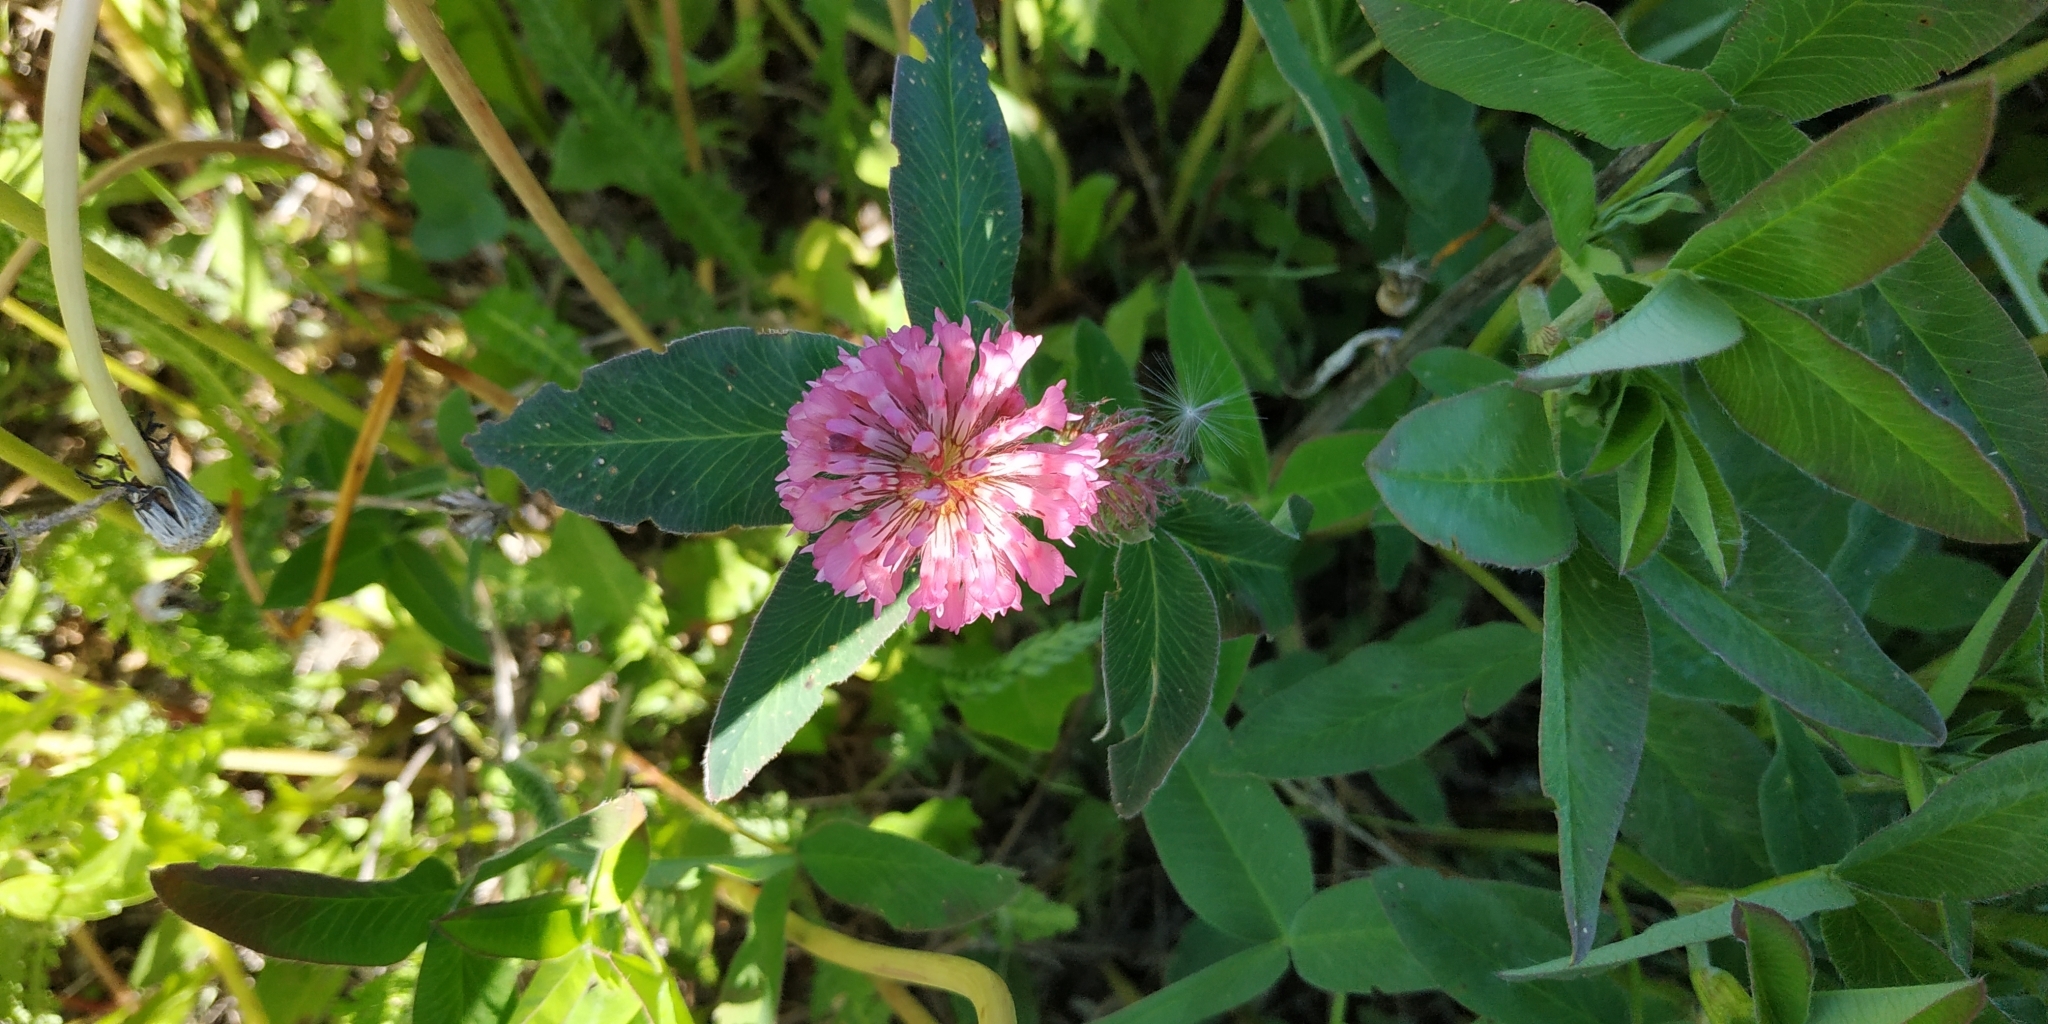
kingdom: Plantae
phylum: Tracheophyta
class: Magnoliopsida
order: Fabales
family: Fabaceae
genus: Trifolium
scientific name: Trifolium medium
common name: Zigzag clover
